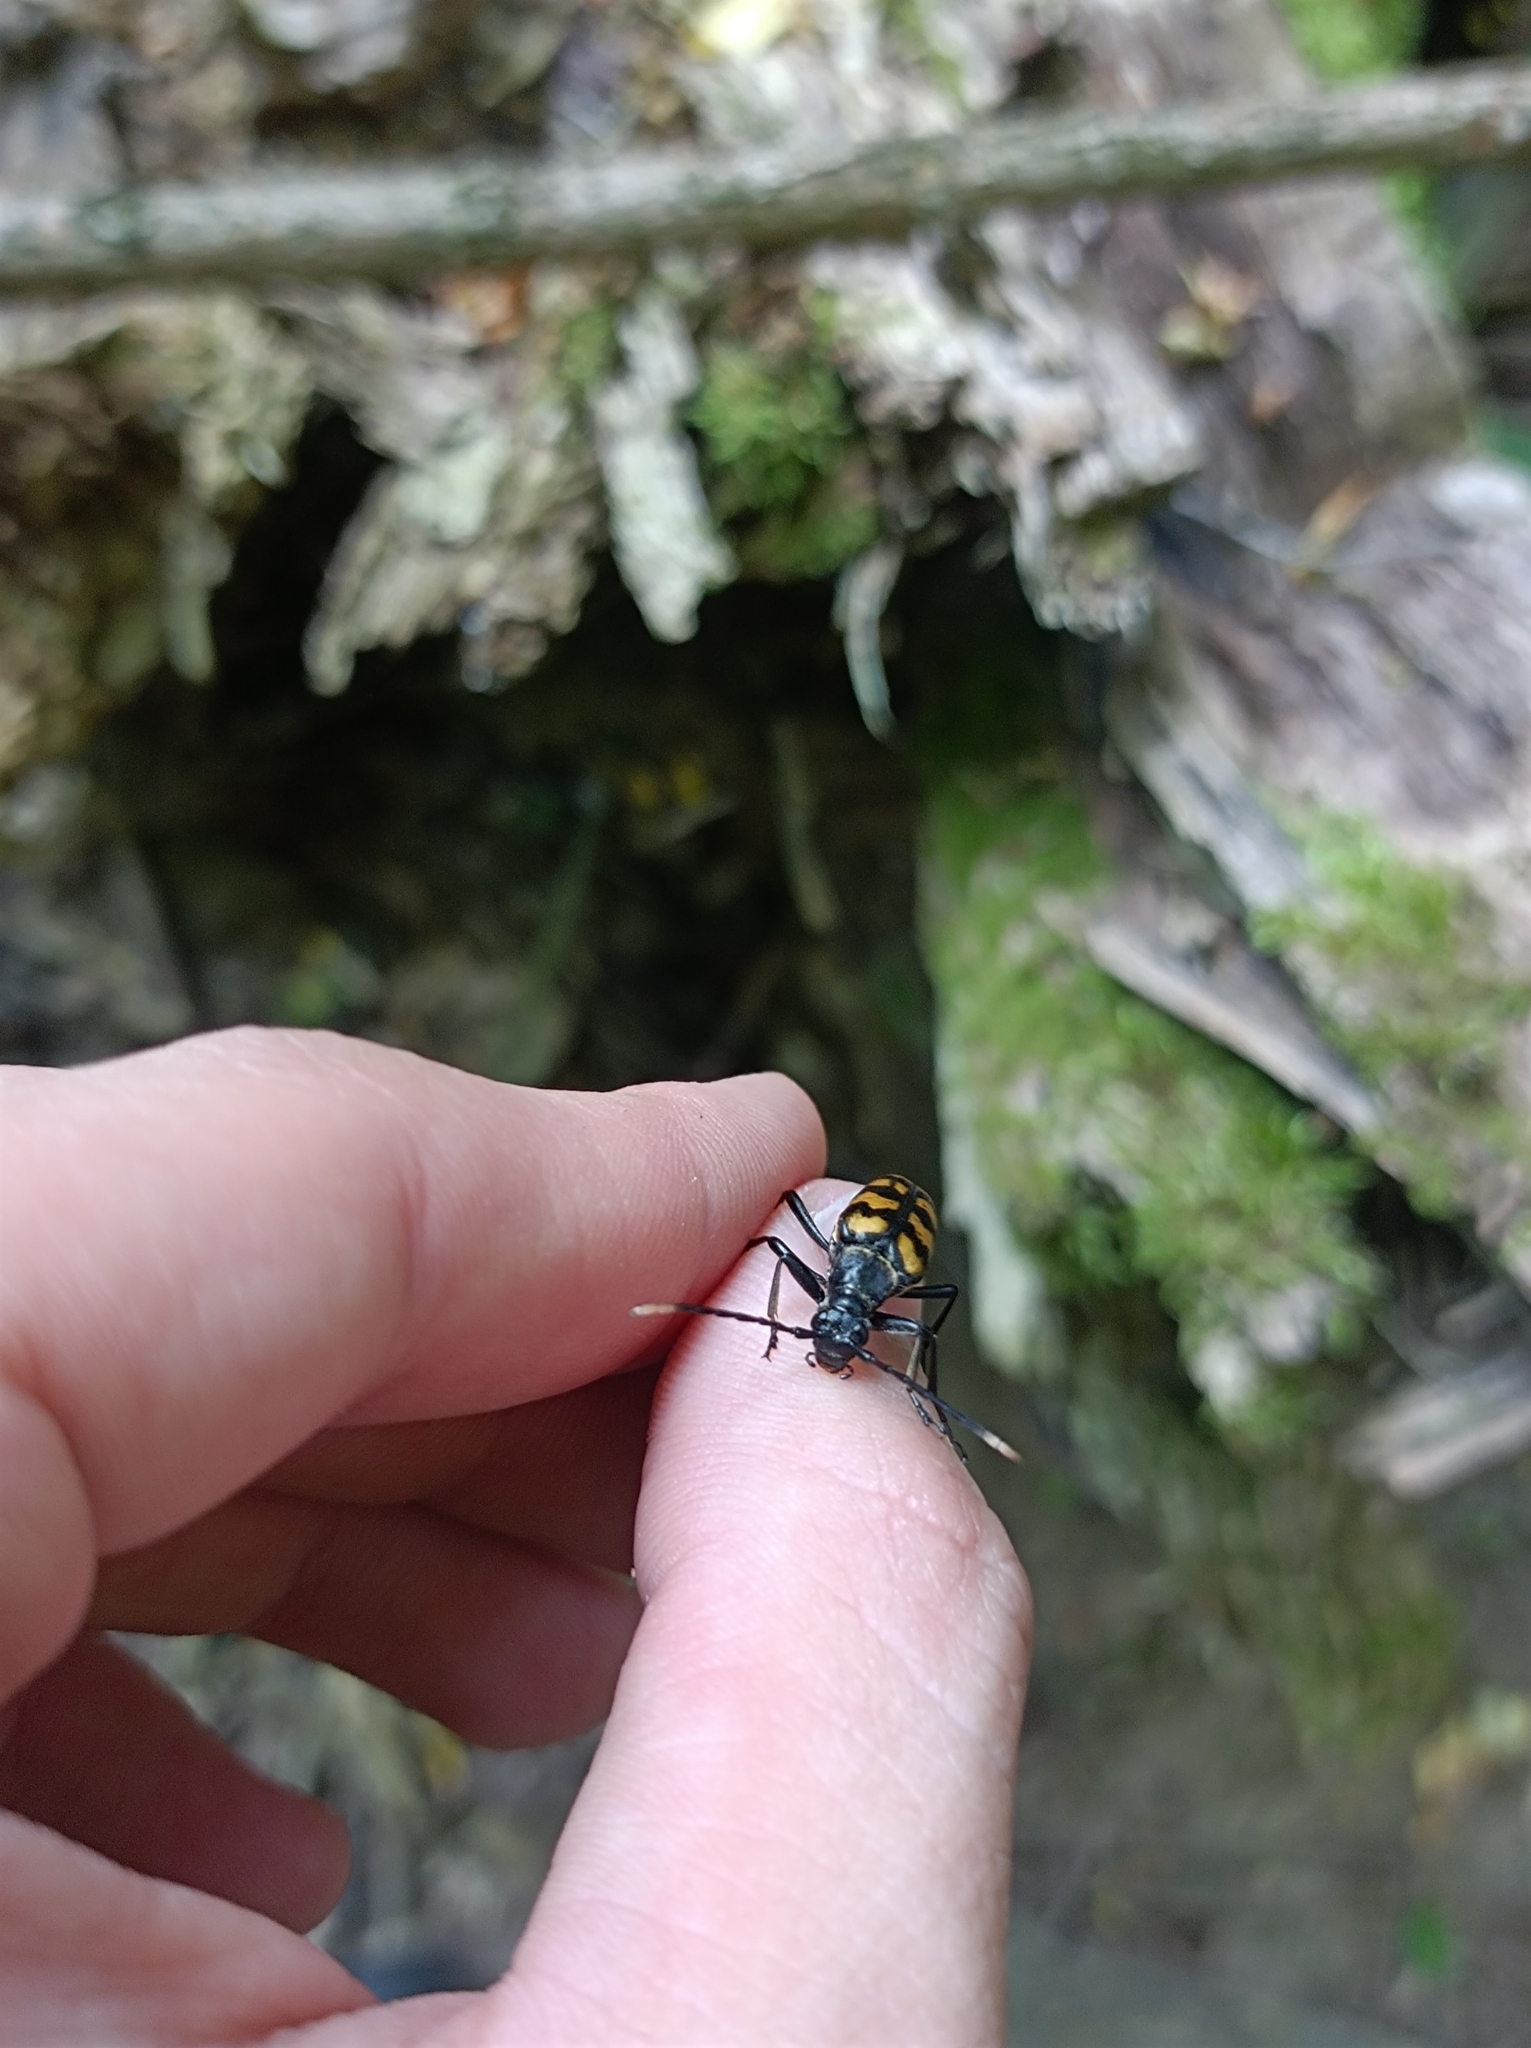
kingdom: Animalia
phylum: Arthropoda
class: Insecta
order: Coleoptera
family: Cerambycidae
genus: Leptura
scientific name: Leptura quadrifasciata
